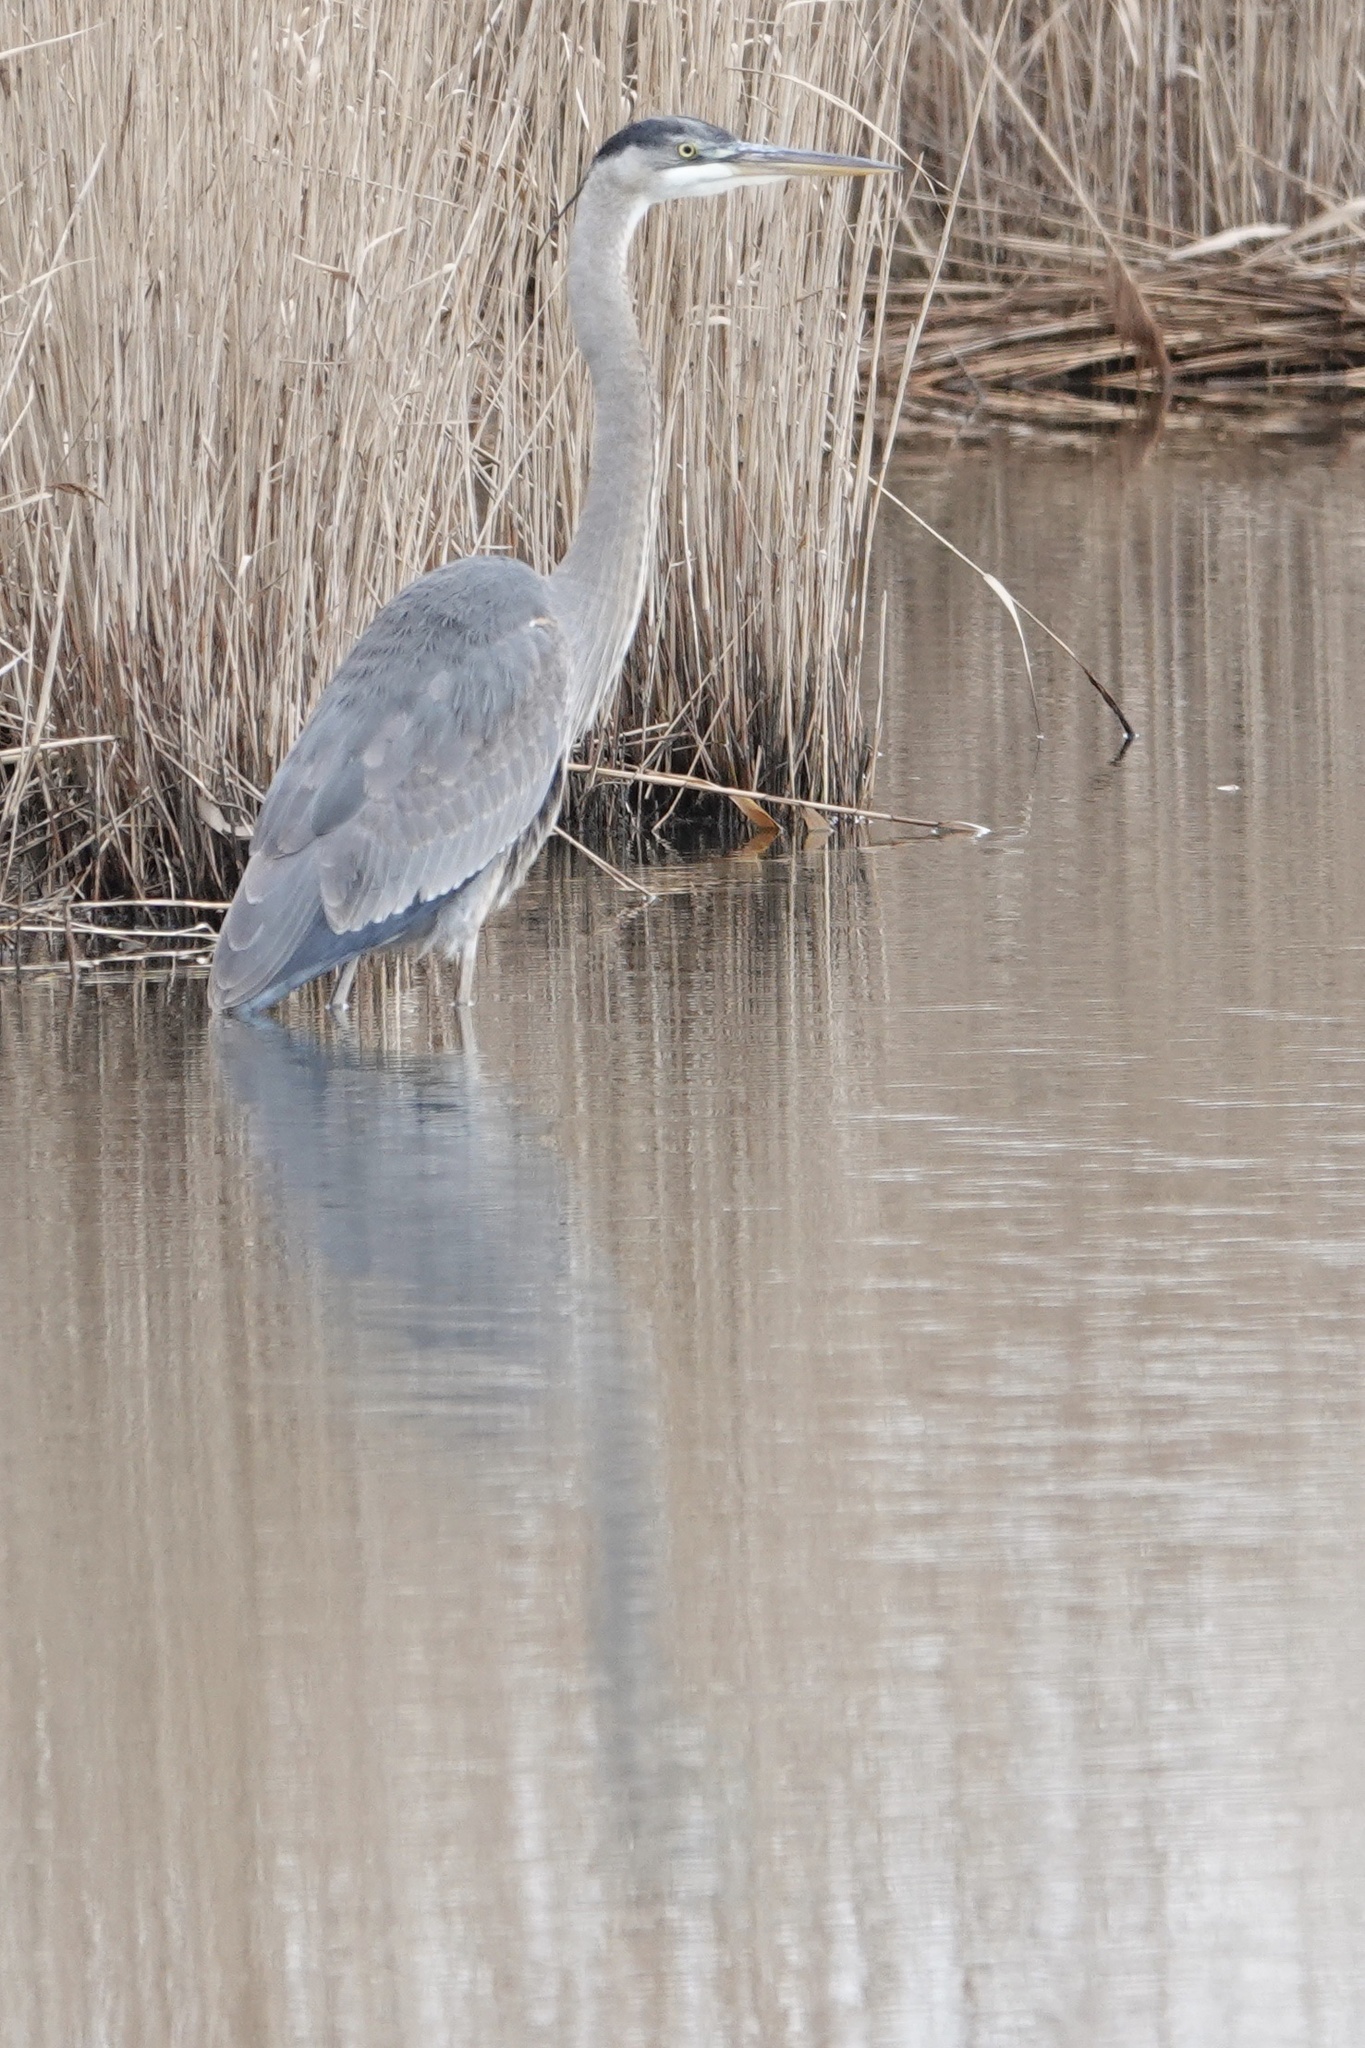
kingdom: Animalia
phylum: Chordata
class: Aves
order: Pelecaniformes
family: Ardeidae
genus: Ardea
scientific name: Ardea herodias
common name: Great blue heron
